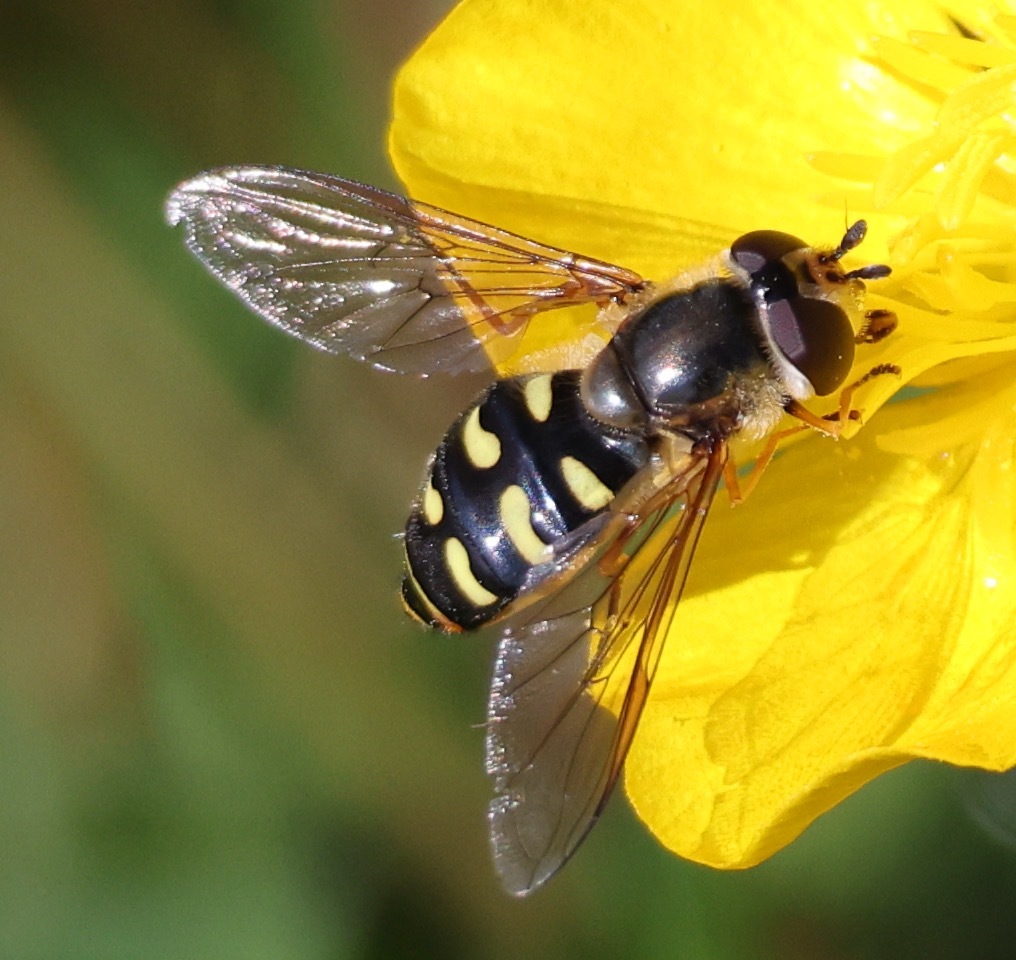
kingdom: Animalia
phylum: Arthropoda
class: Insecta
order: Diptera
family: Syrphidae
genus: Eupeodes
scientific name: Eupeodes luniger
